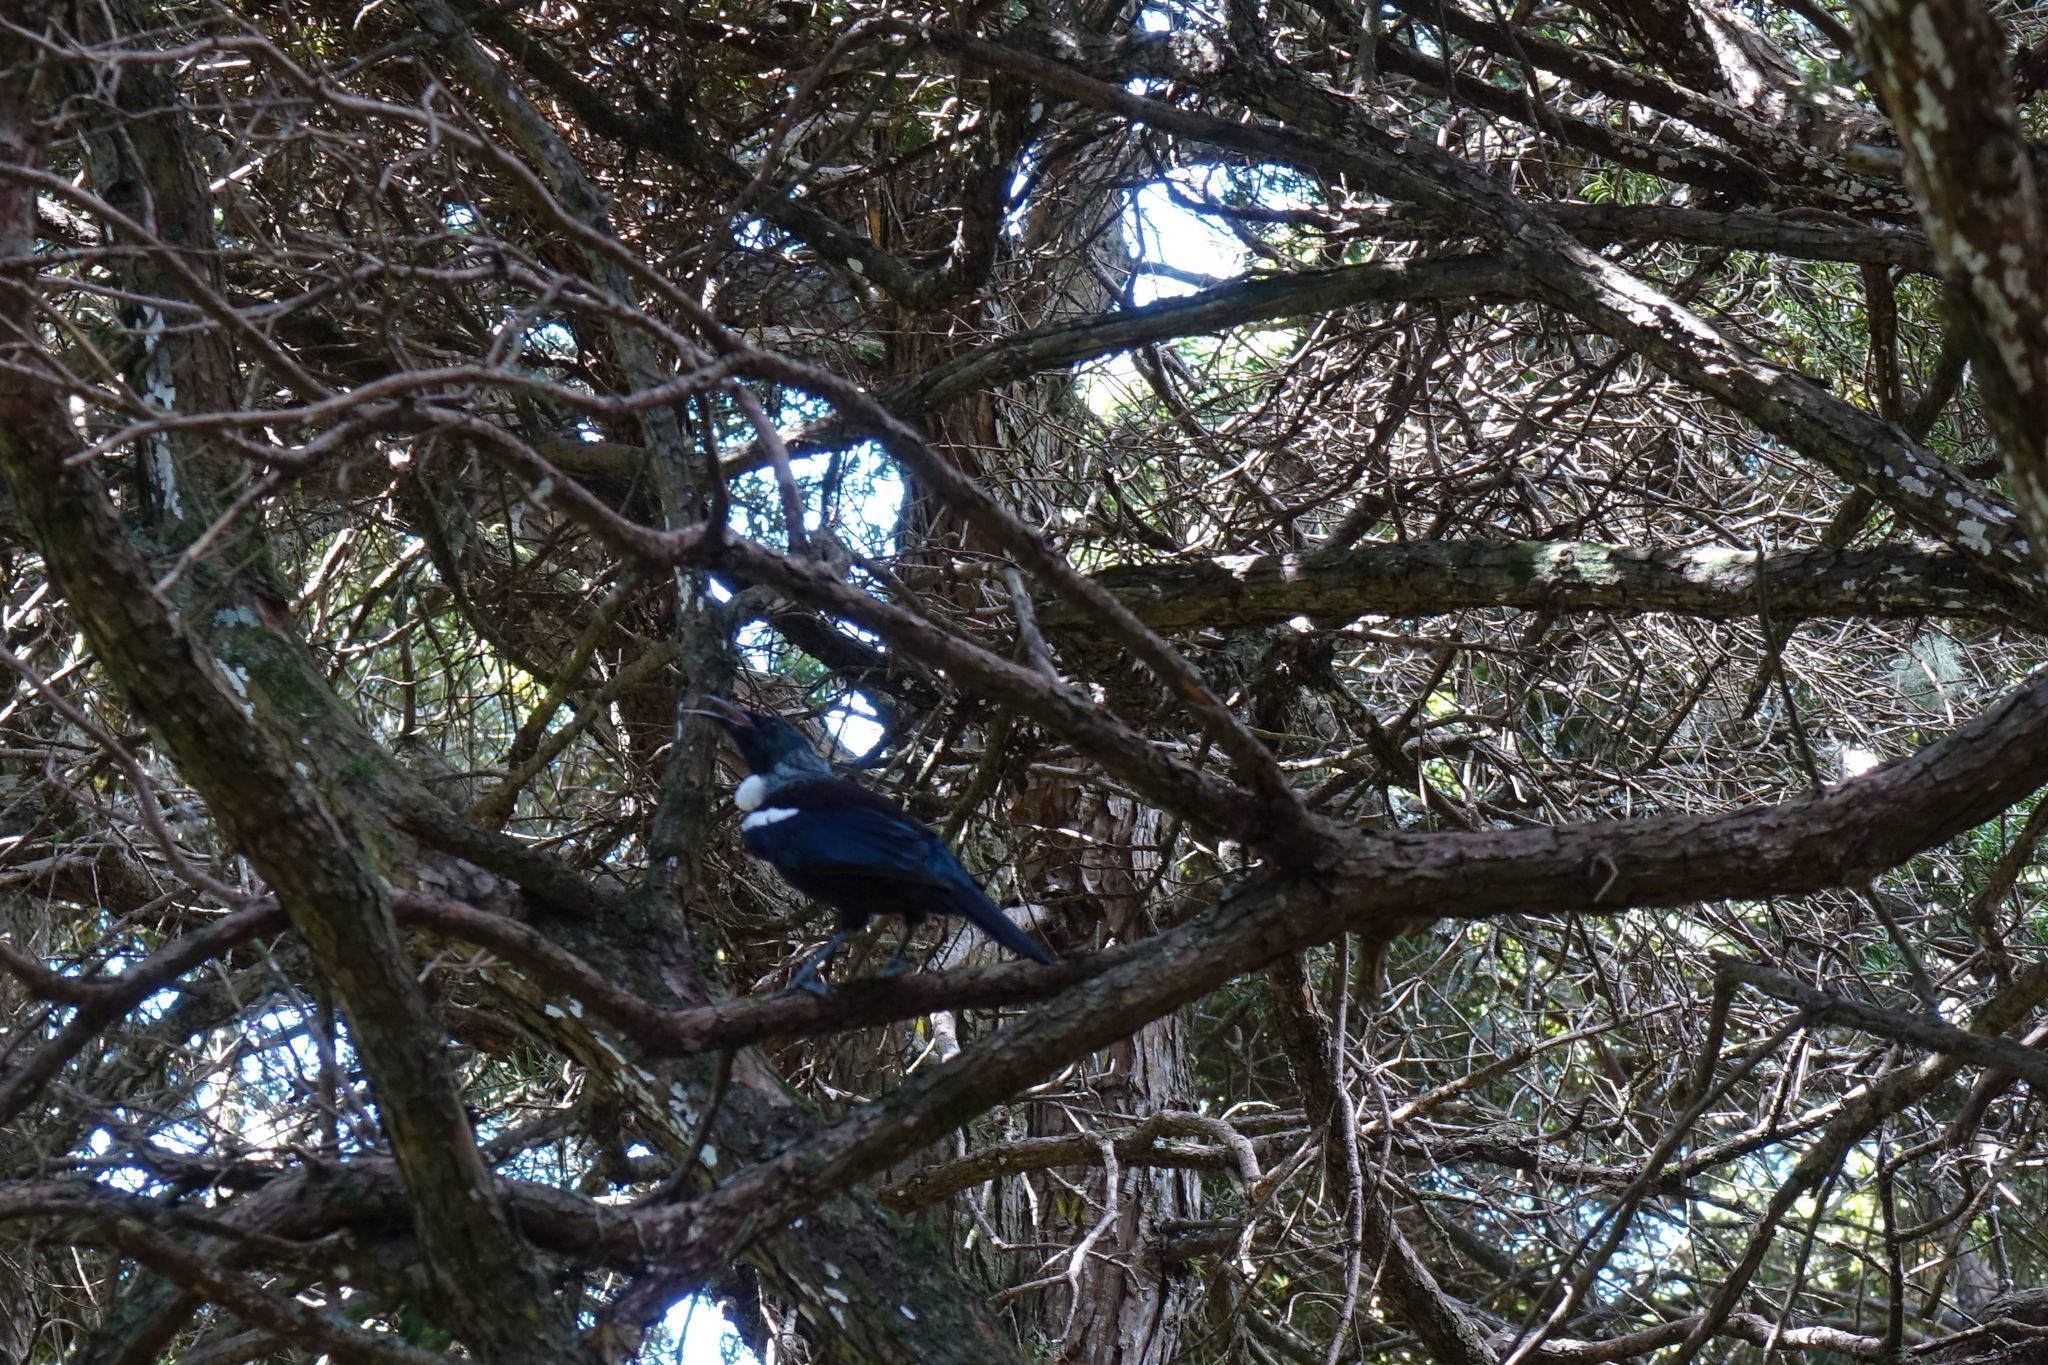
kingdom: Animalia
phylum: Chordata
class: Aves
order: Passeriformes
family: Meliphagidae
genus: Prosthemadera
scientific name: Prosthemadera novaeseelandiae
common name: Tui
